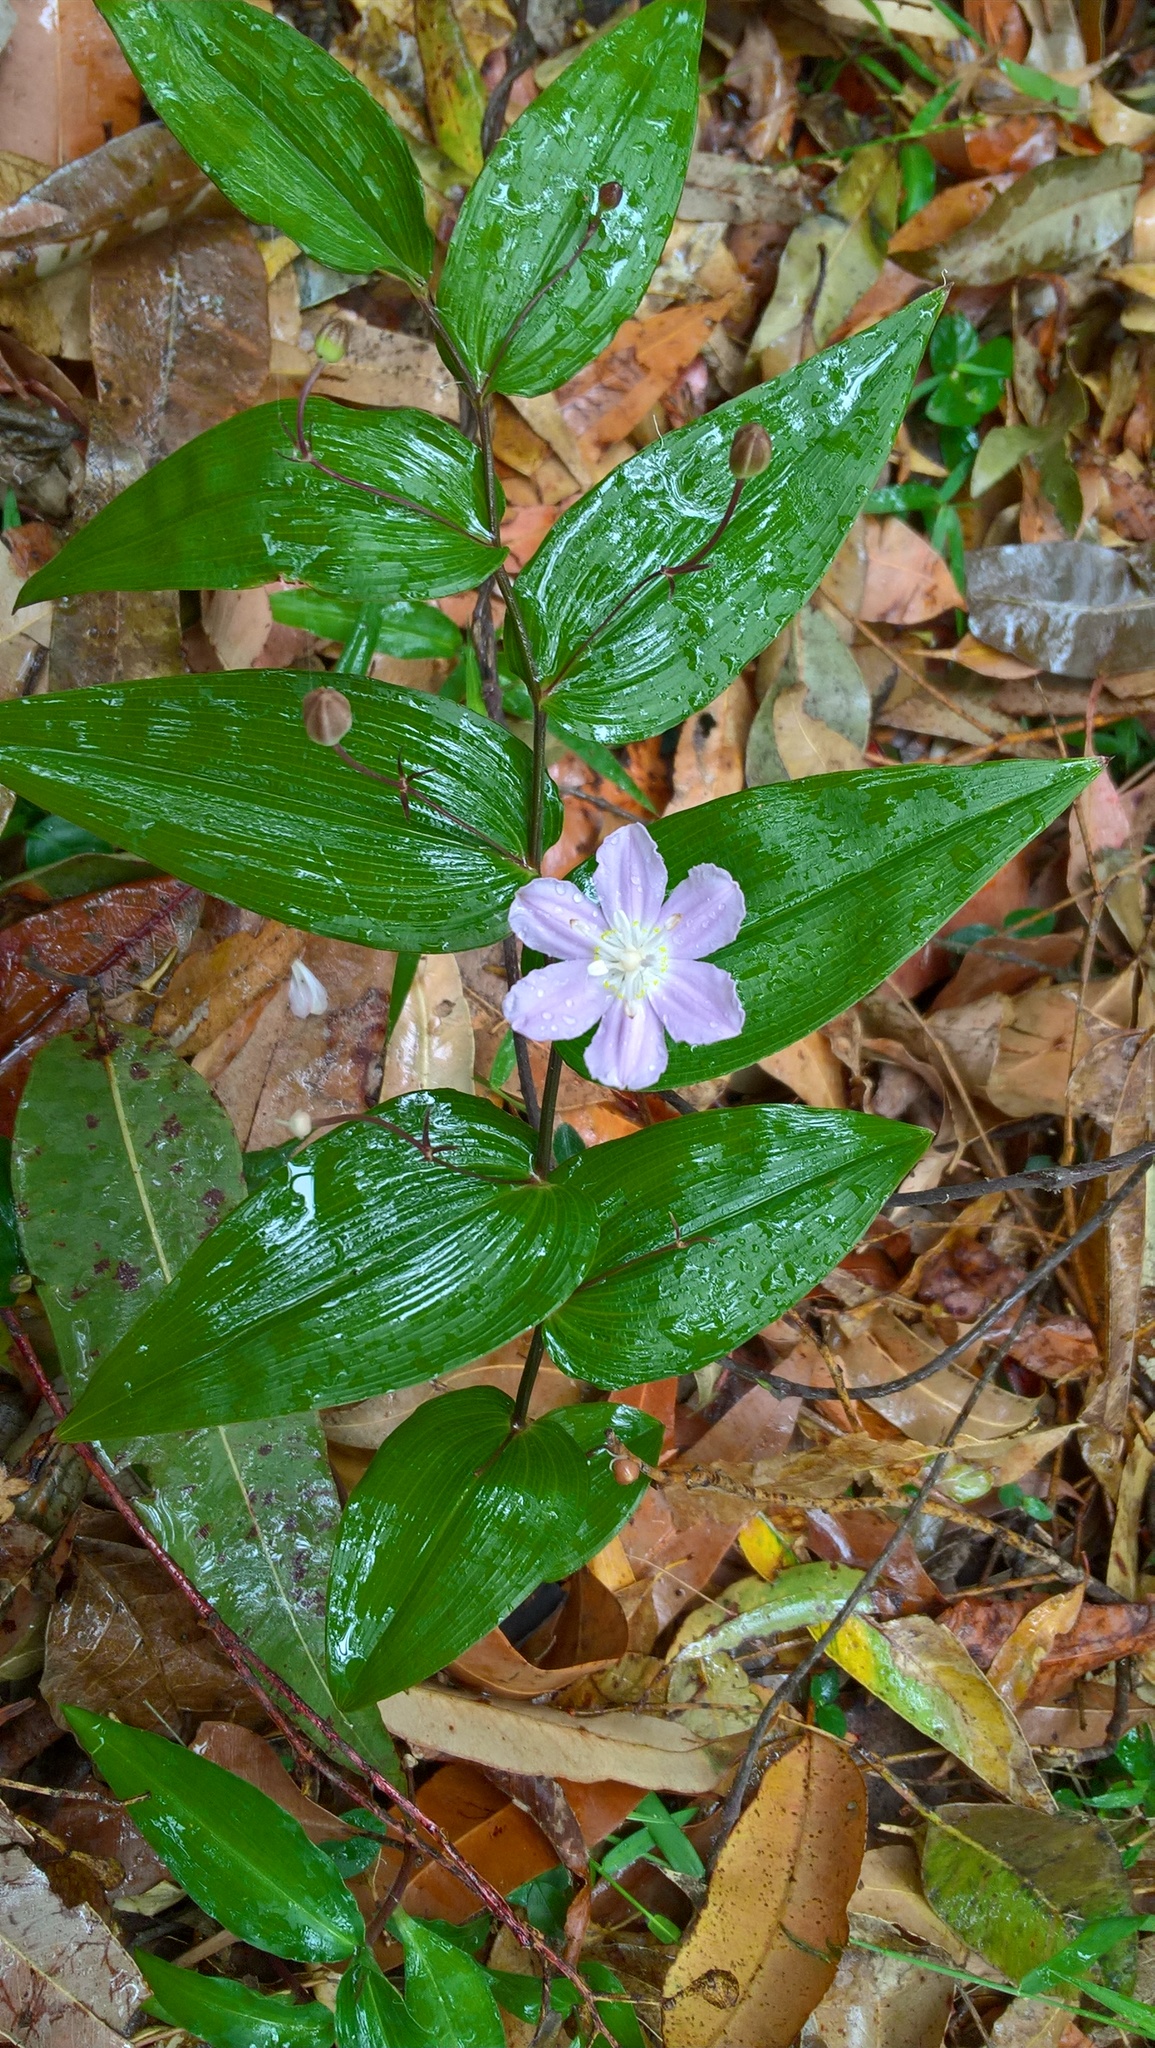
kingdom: Plantae
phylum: Tracheophyta
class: Liliopsida
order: Liliales
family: Colchicaceae
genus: Tripladenia
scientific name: Tripladenia cunninghamii
